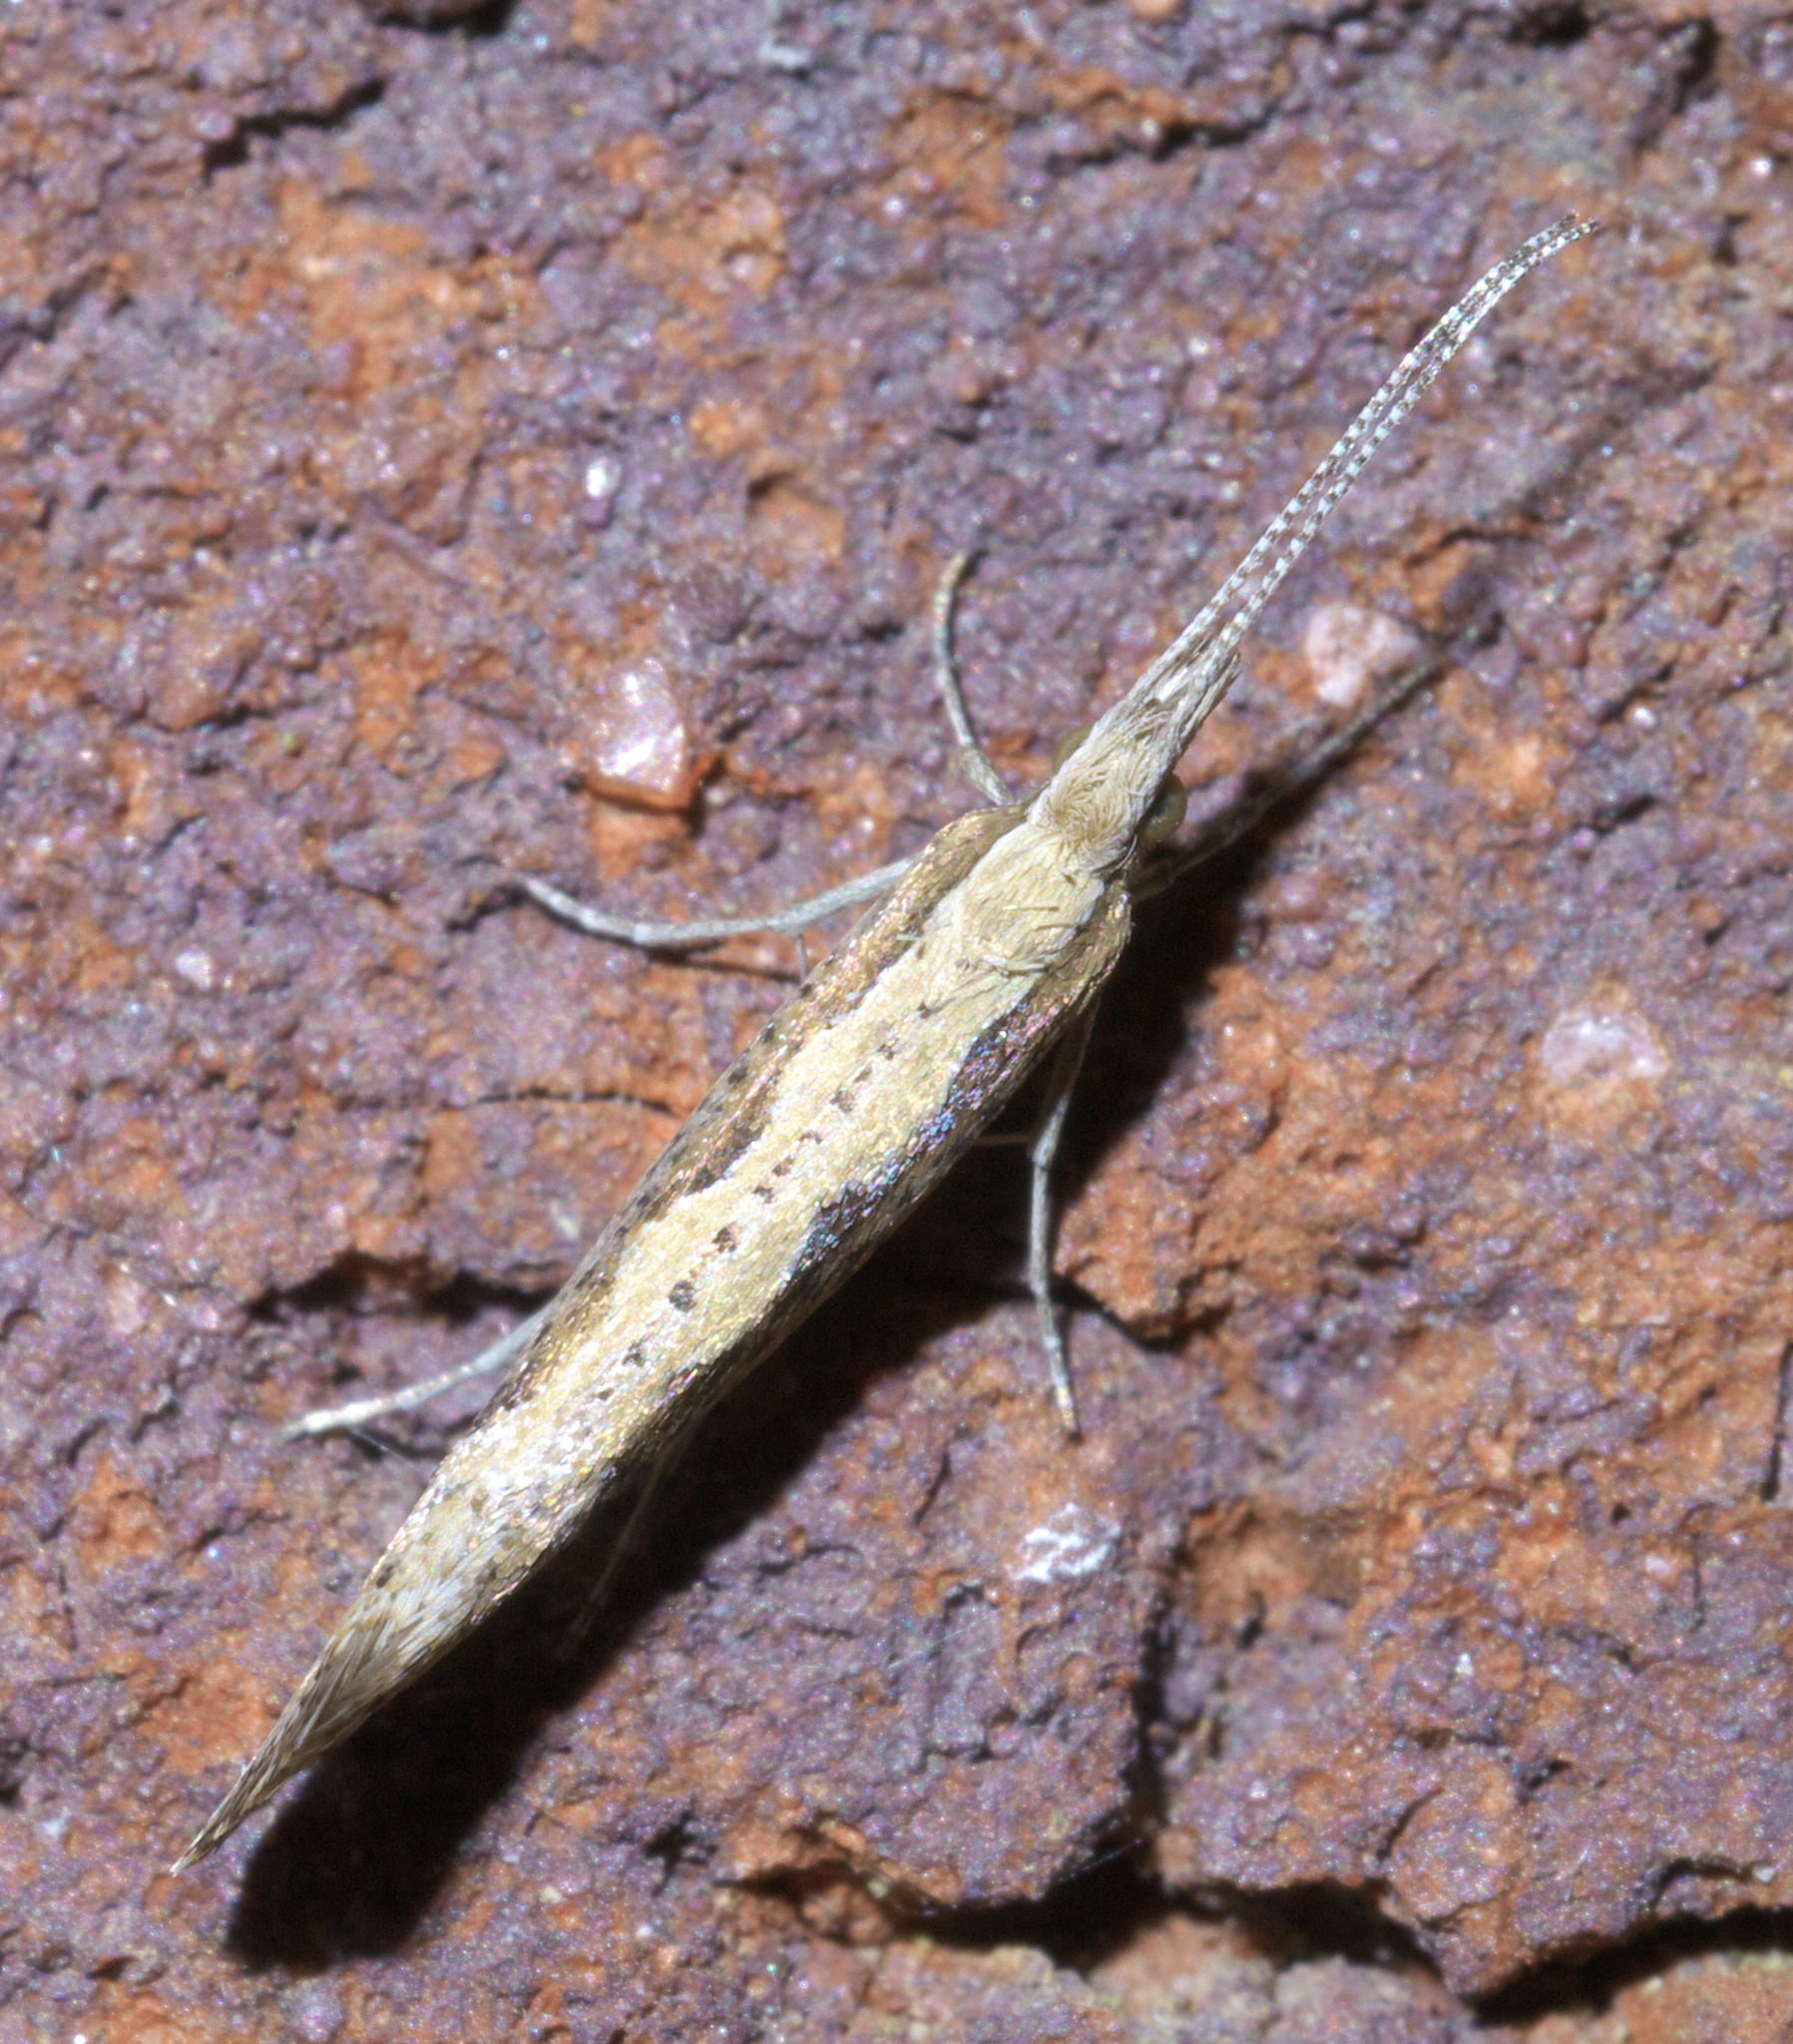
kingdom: Animalia
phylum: Arthropoda
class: Insecta
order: Lepidoptera
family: Plutellidae
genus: Plutella
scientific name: Plutella xylostella
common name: Diamond-back moth
